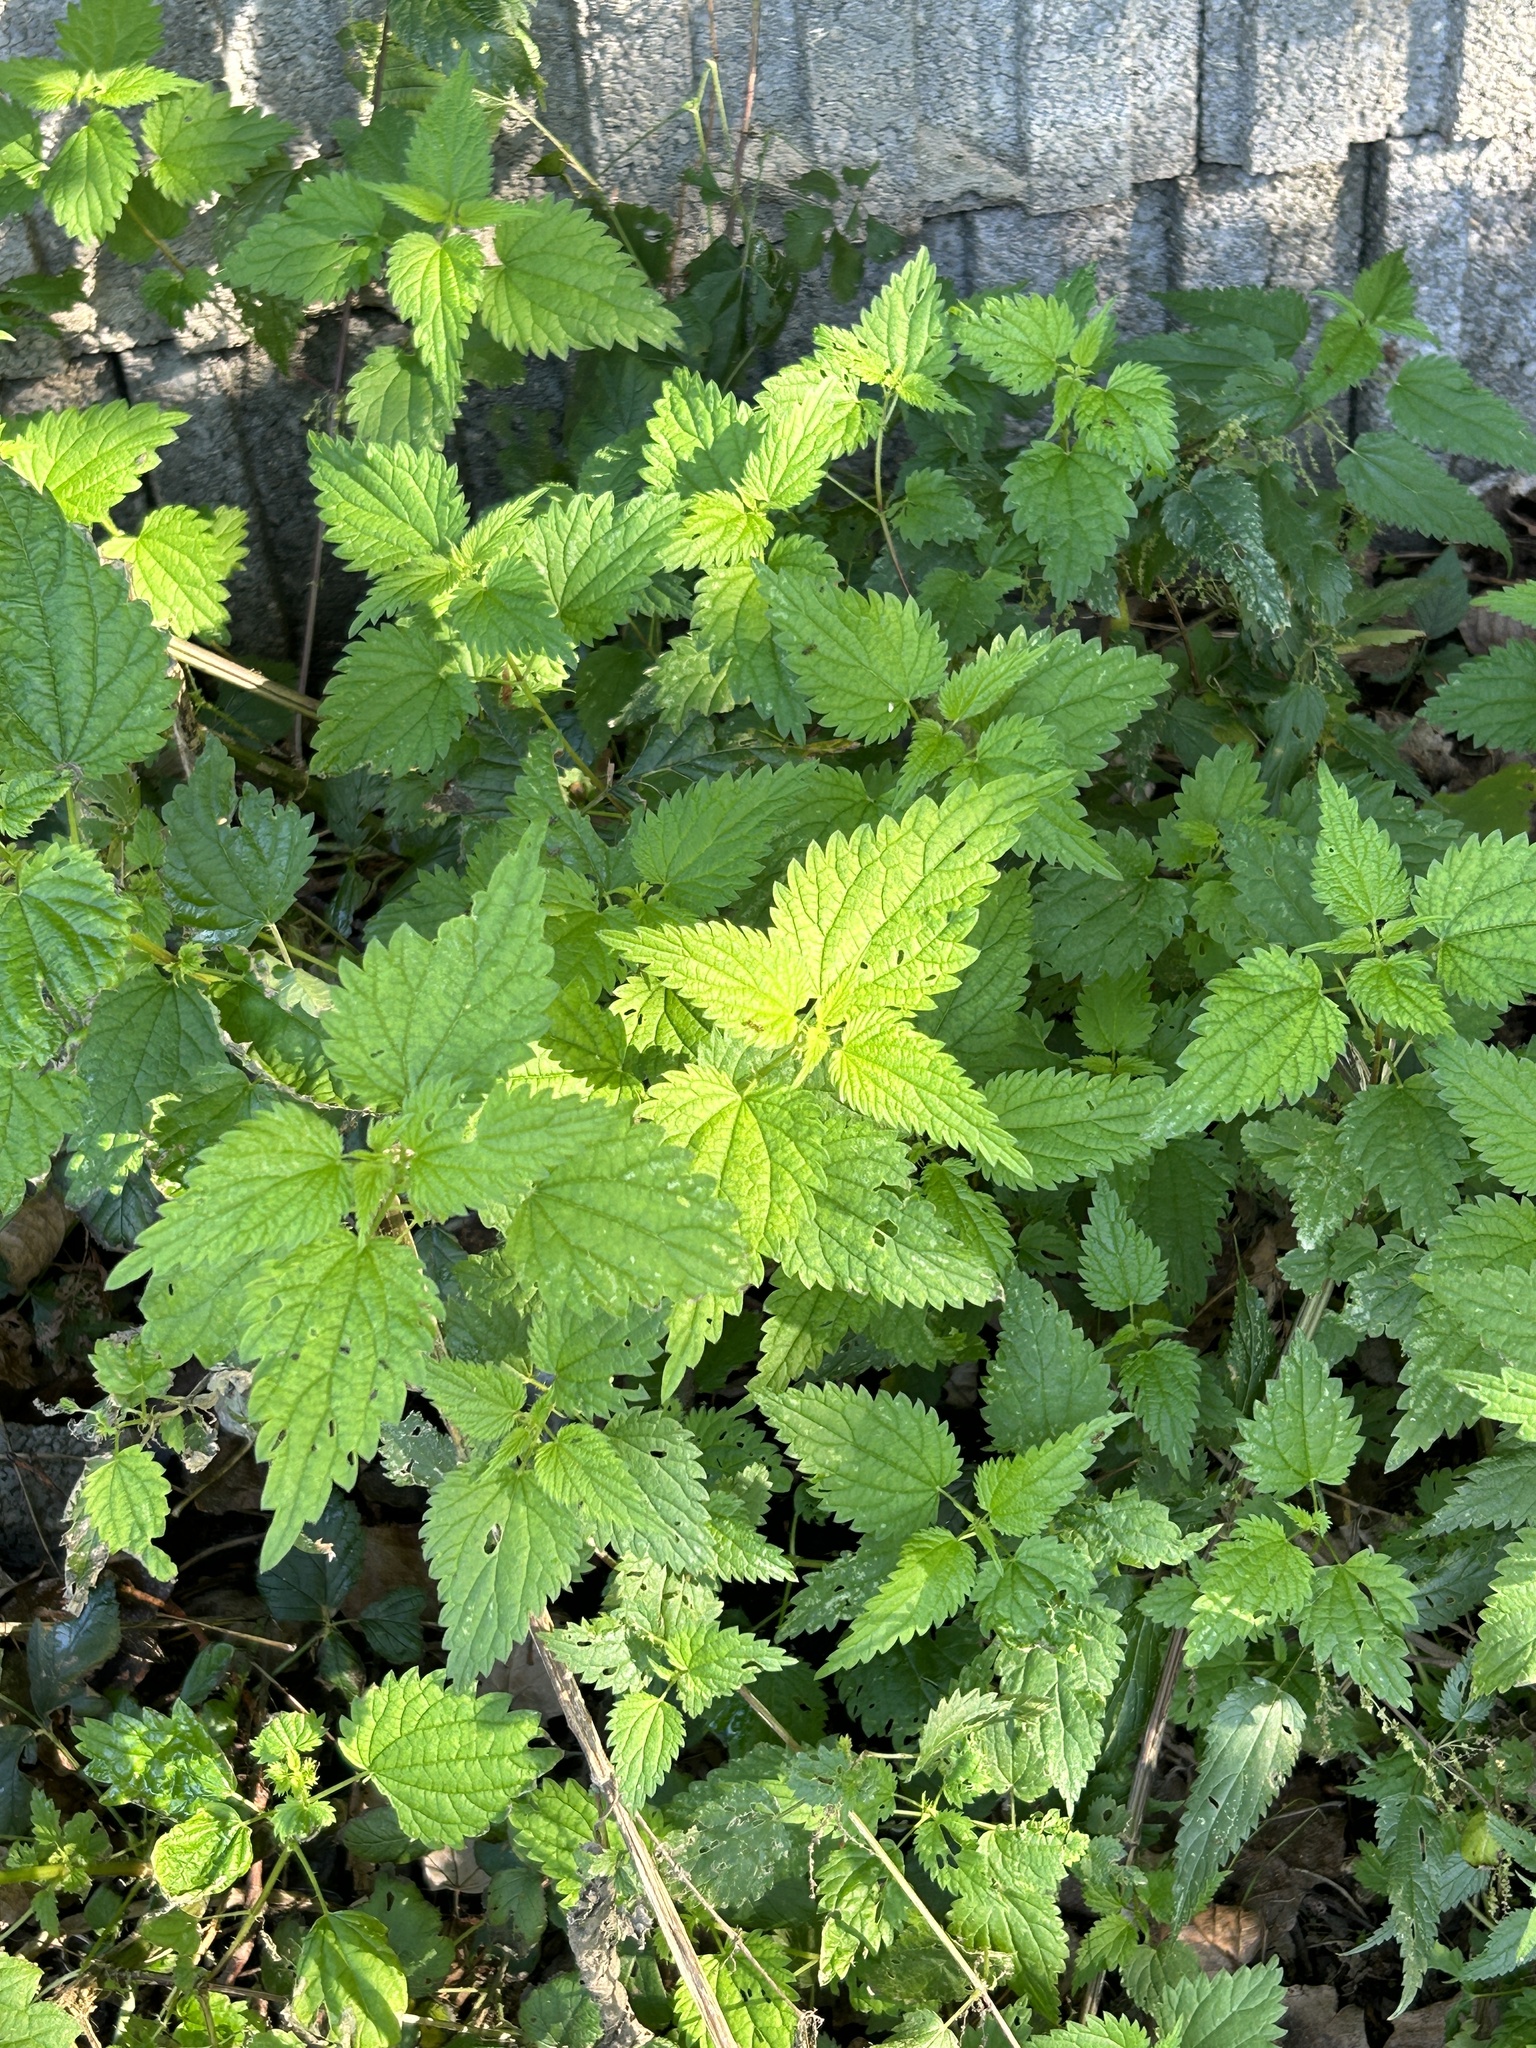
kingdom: Plantae
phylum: Tracheophyta
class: Magnoliopsida
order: Rosales
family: Urticaceae
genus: Urtica
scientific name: Urtica dioica
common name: Common nettle
